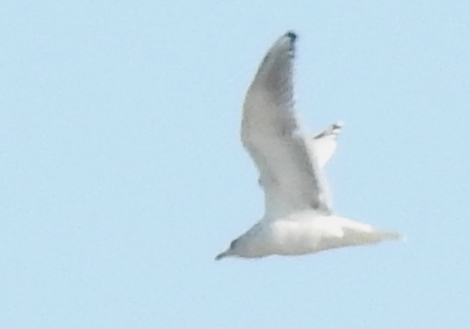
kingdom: Animalia
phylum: Chordata
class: Aves
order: Charadriiformes
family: Laridae
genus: Larus
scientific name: Larus glaucoides
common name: Iceland gull
